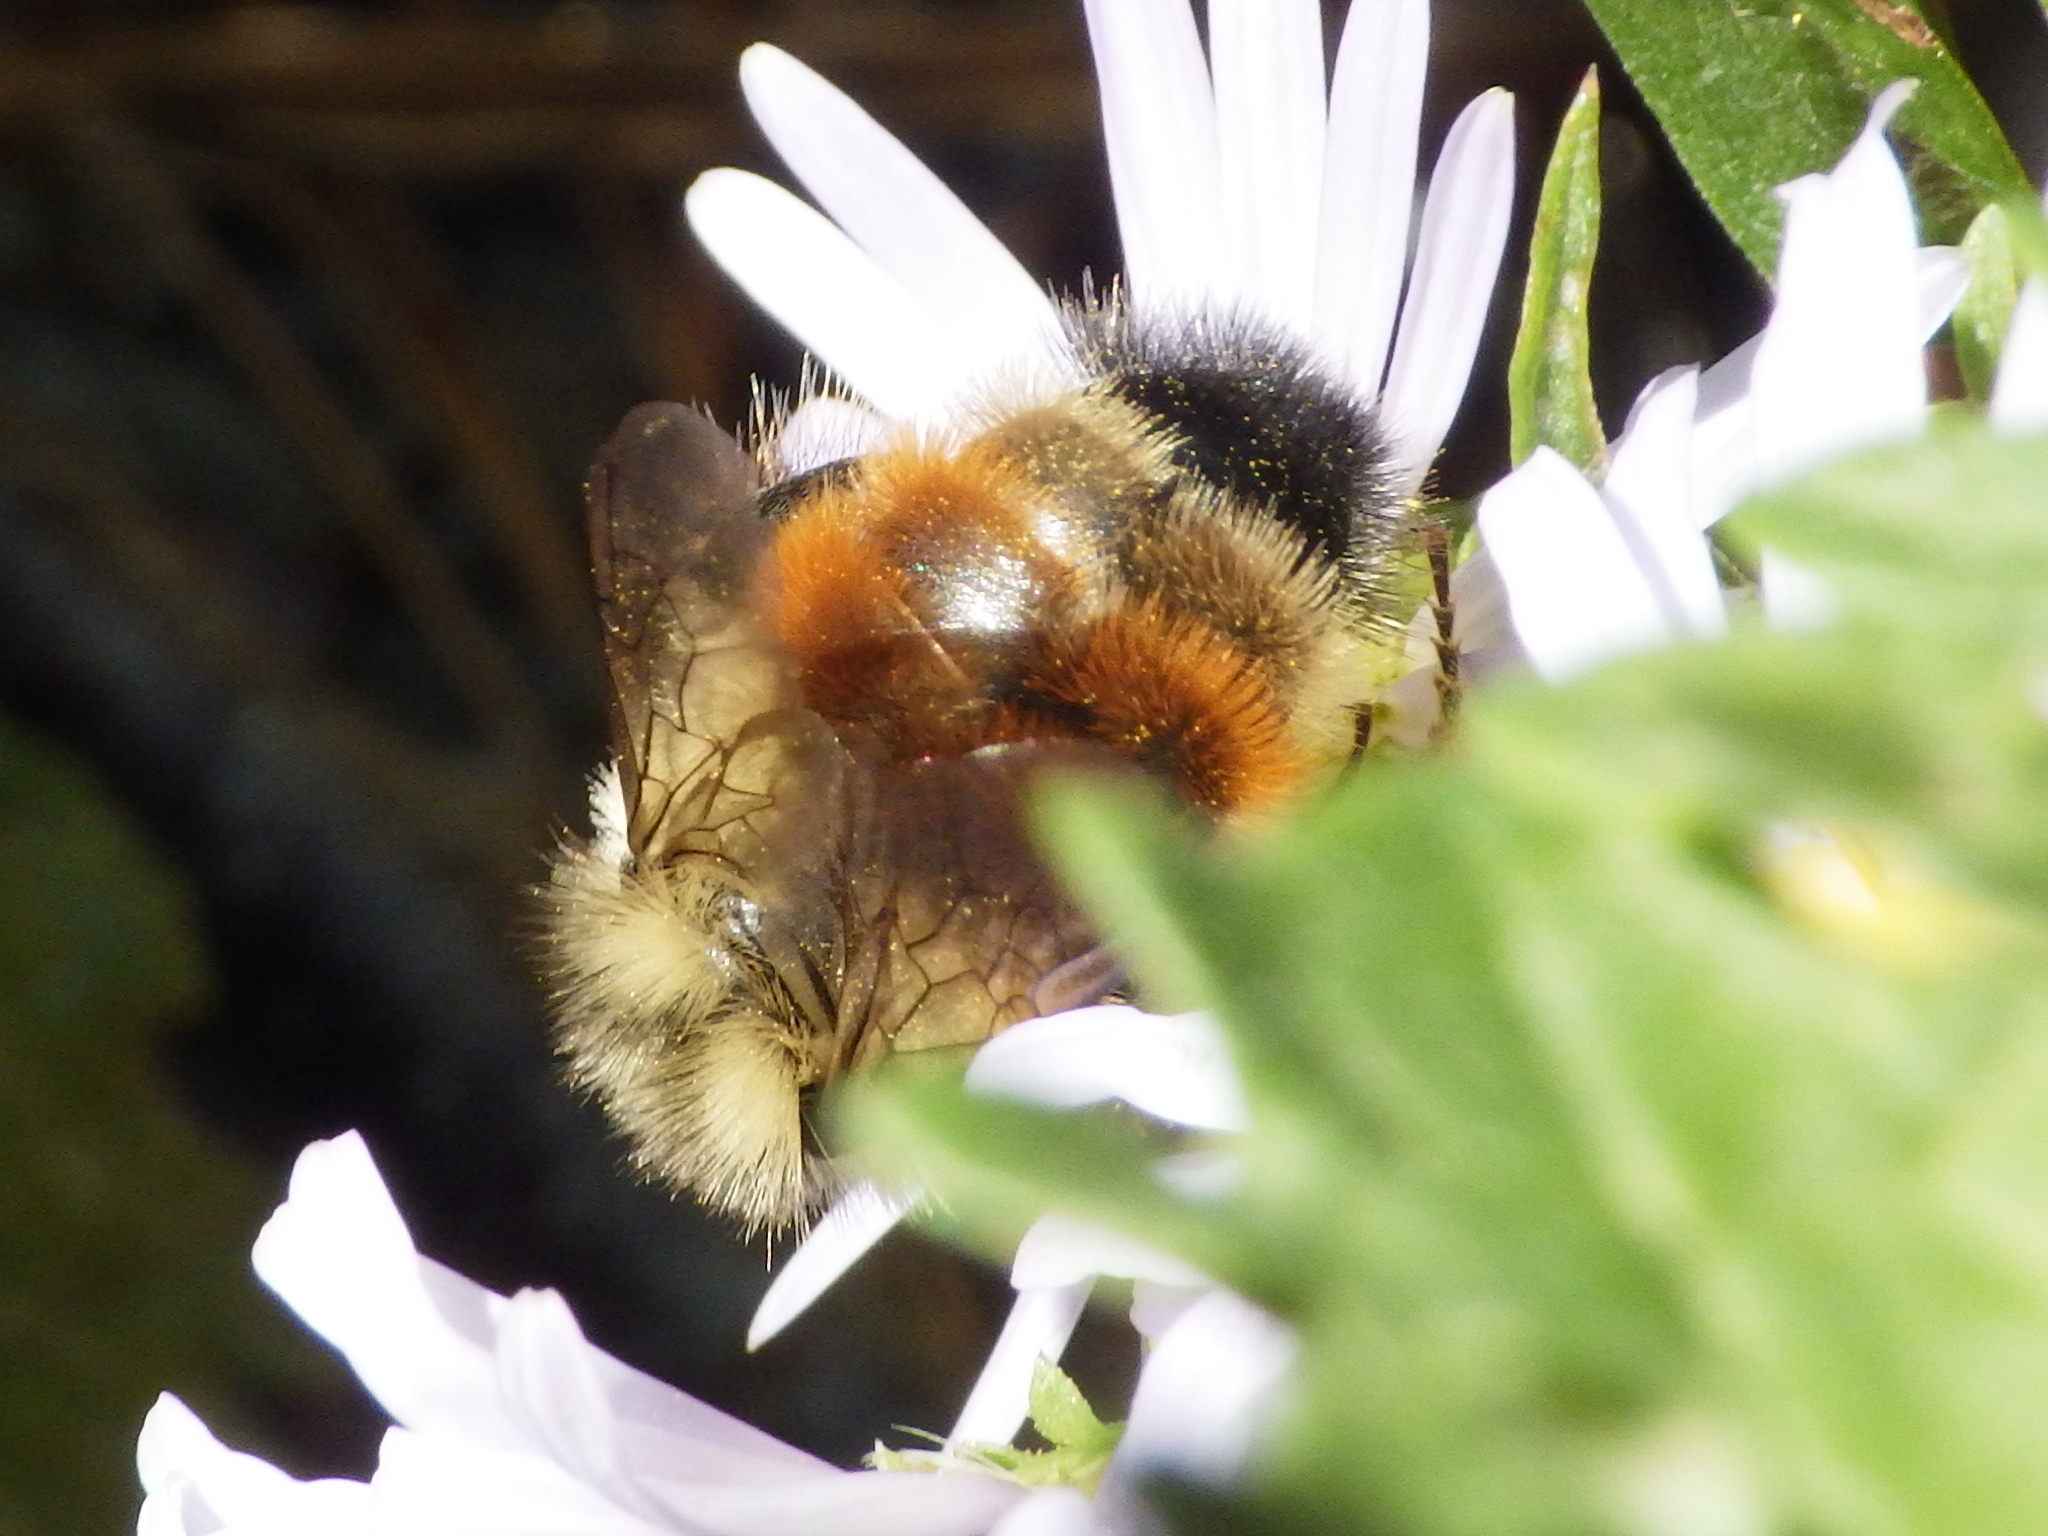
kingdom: Animalia
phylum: Arthropoda
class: Insecta
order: Hymenoptera
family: Apidae
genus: Bombus
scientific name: Bombus ternarius
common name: Tri-colored bumble bee
